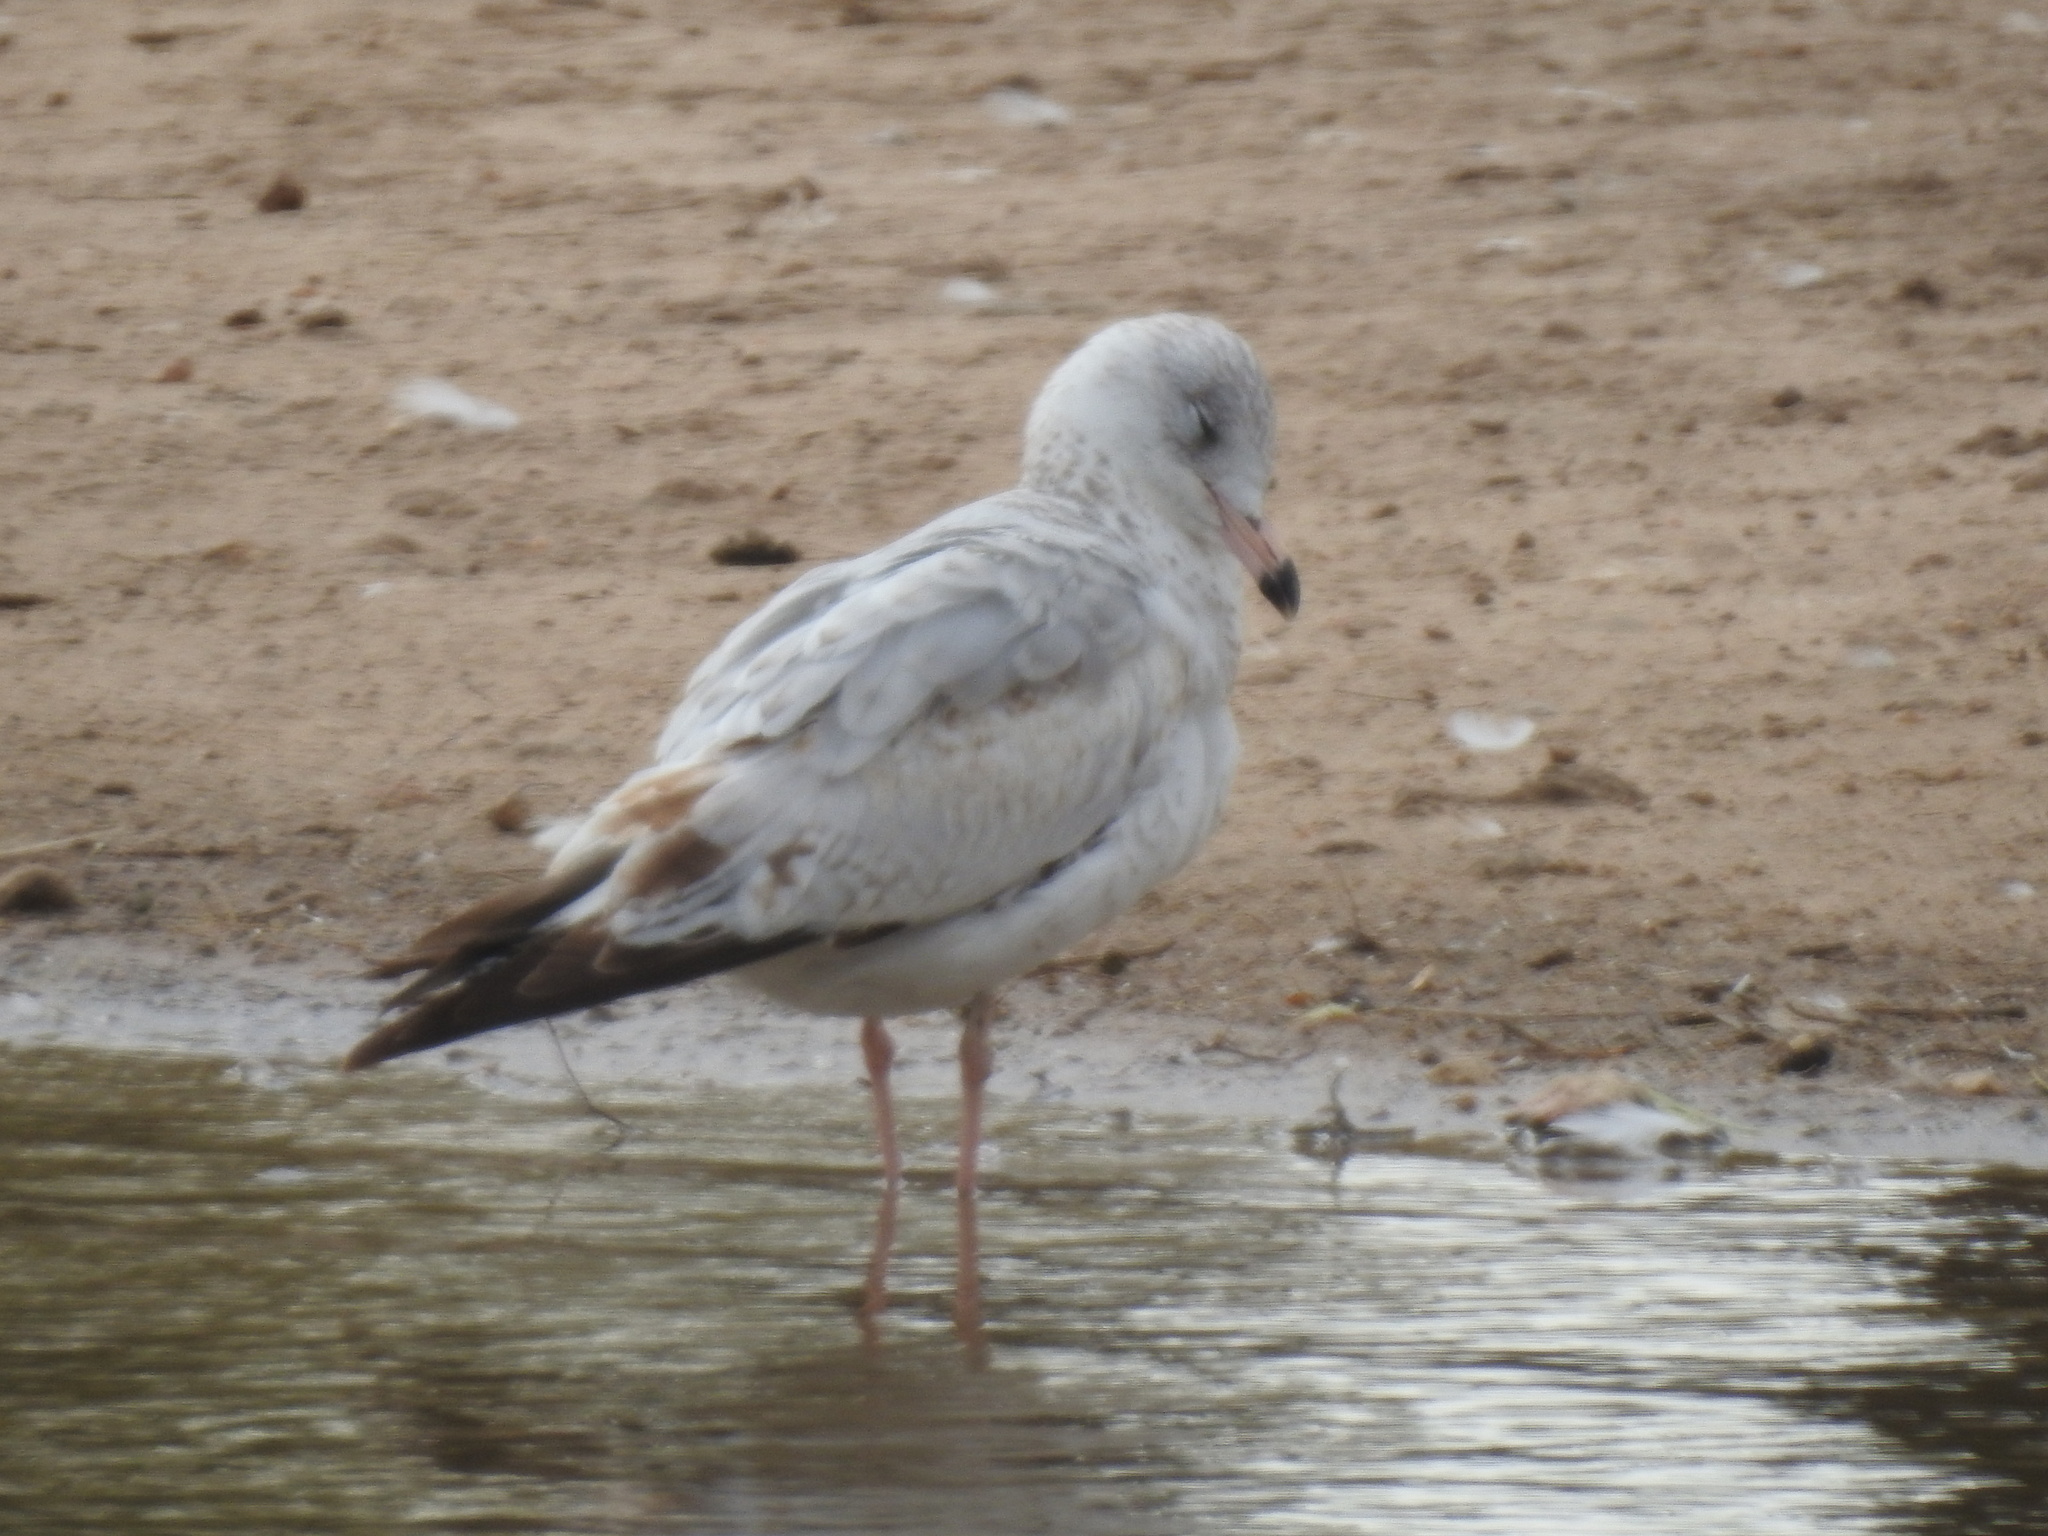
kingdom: Animalia
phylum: Chordata
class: Aves
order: Charadriiformes
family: Laridae
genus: Larus
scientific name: Larus delawarensis
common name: Ring-billed gull
